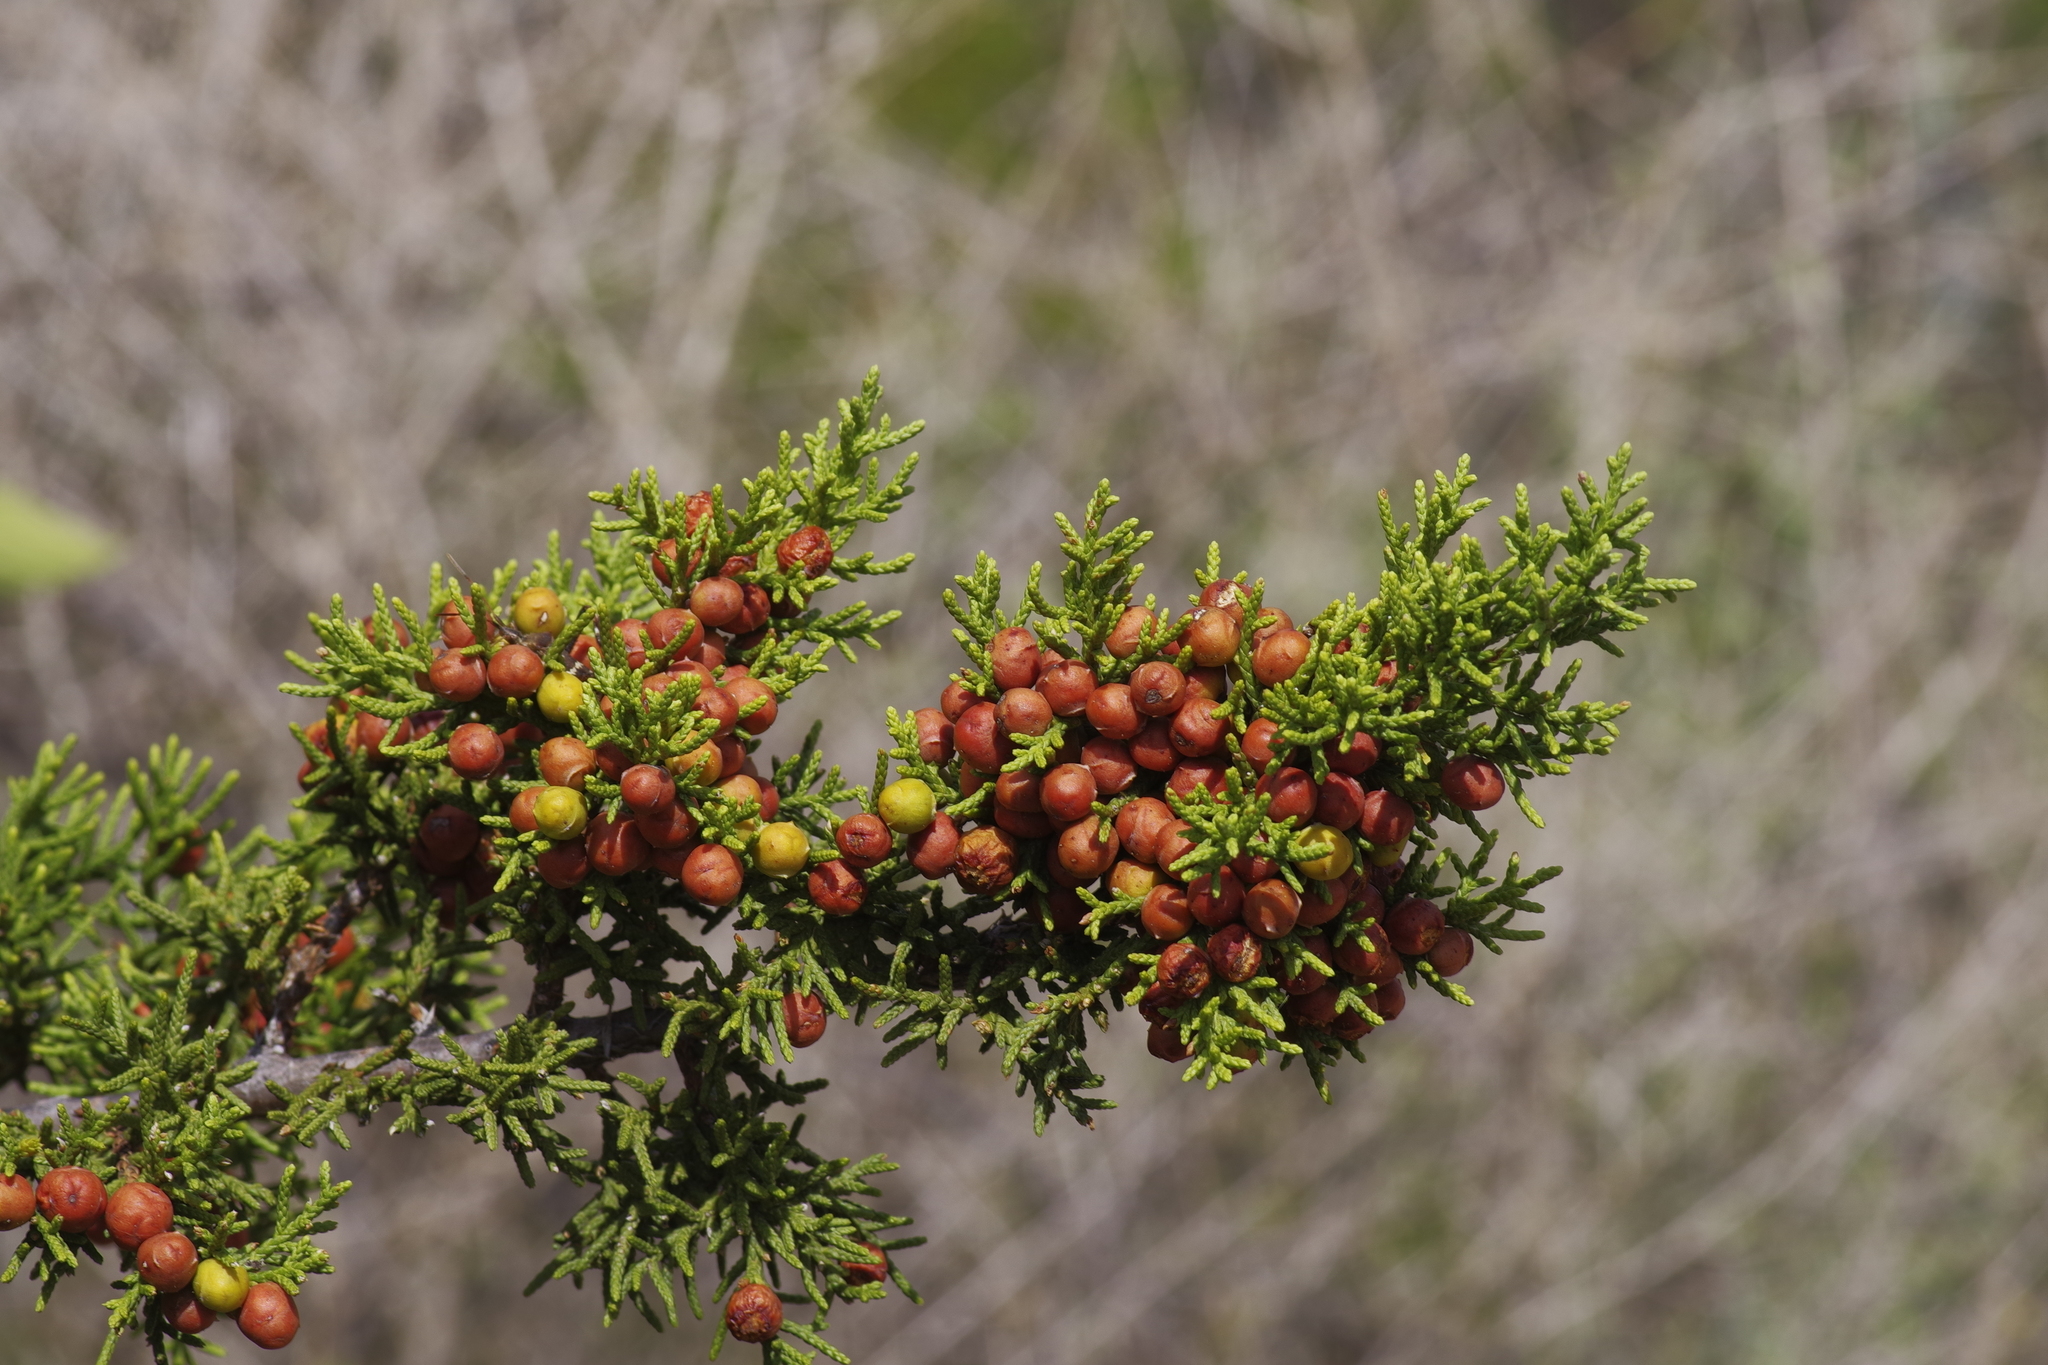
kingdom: Plantae
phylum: Tracheophyta
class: Pinopsida
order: Pinales
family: Cupressaceae
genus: Juniperus
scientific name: Juniperus pinchotii
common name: Pinchot juniper
